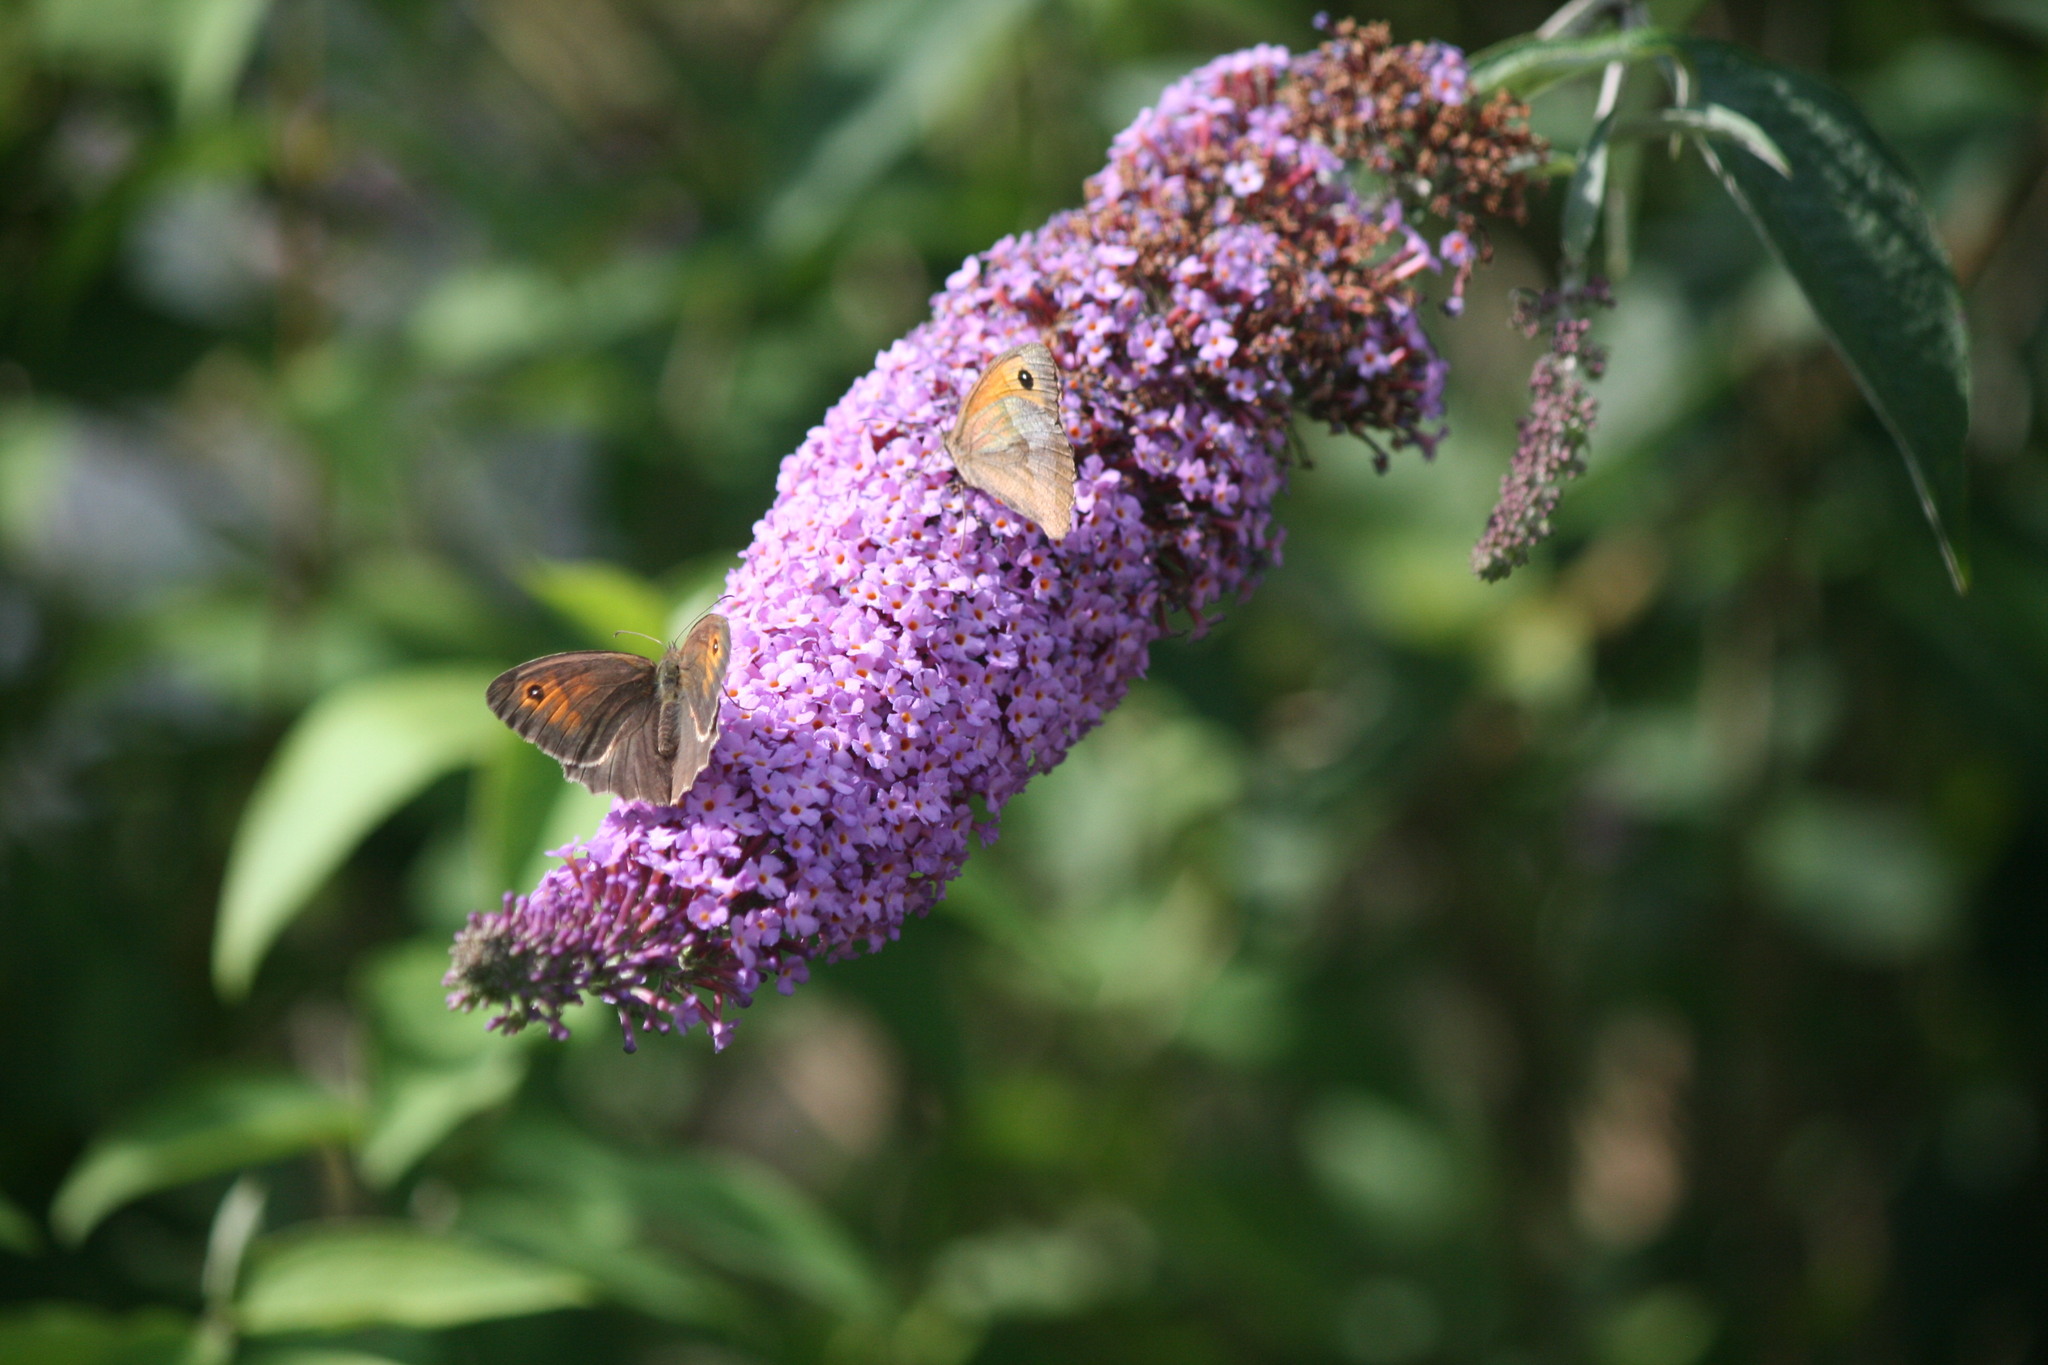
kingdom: Animalia
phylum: Arthropoda
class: Insecta
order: Lepidoptera
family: Nymphalidae
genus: Maniola
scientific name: Maniola jurtina
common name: Meadow brown
